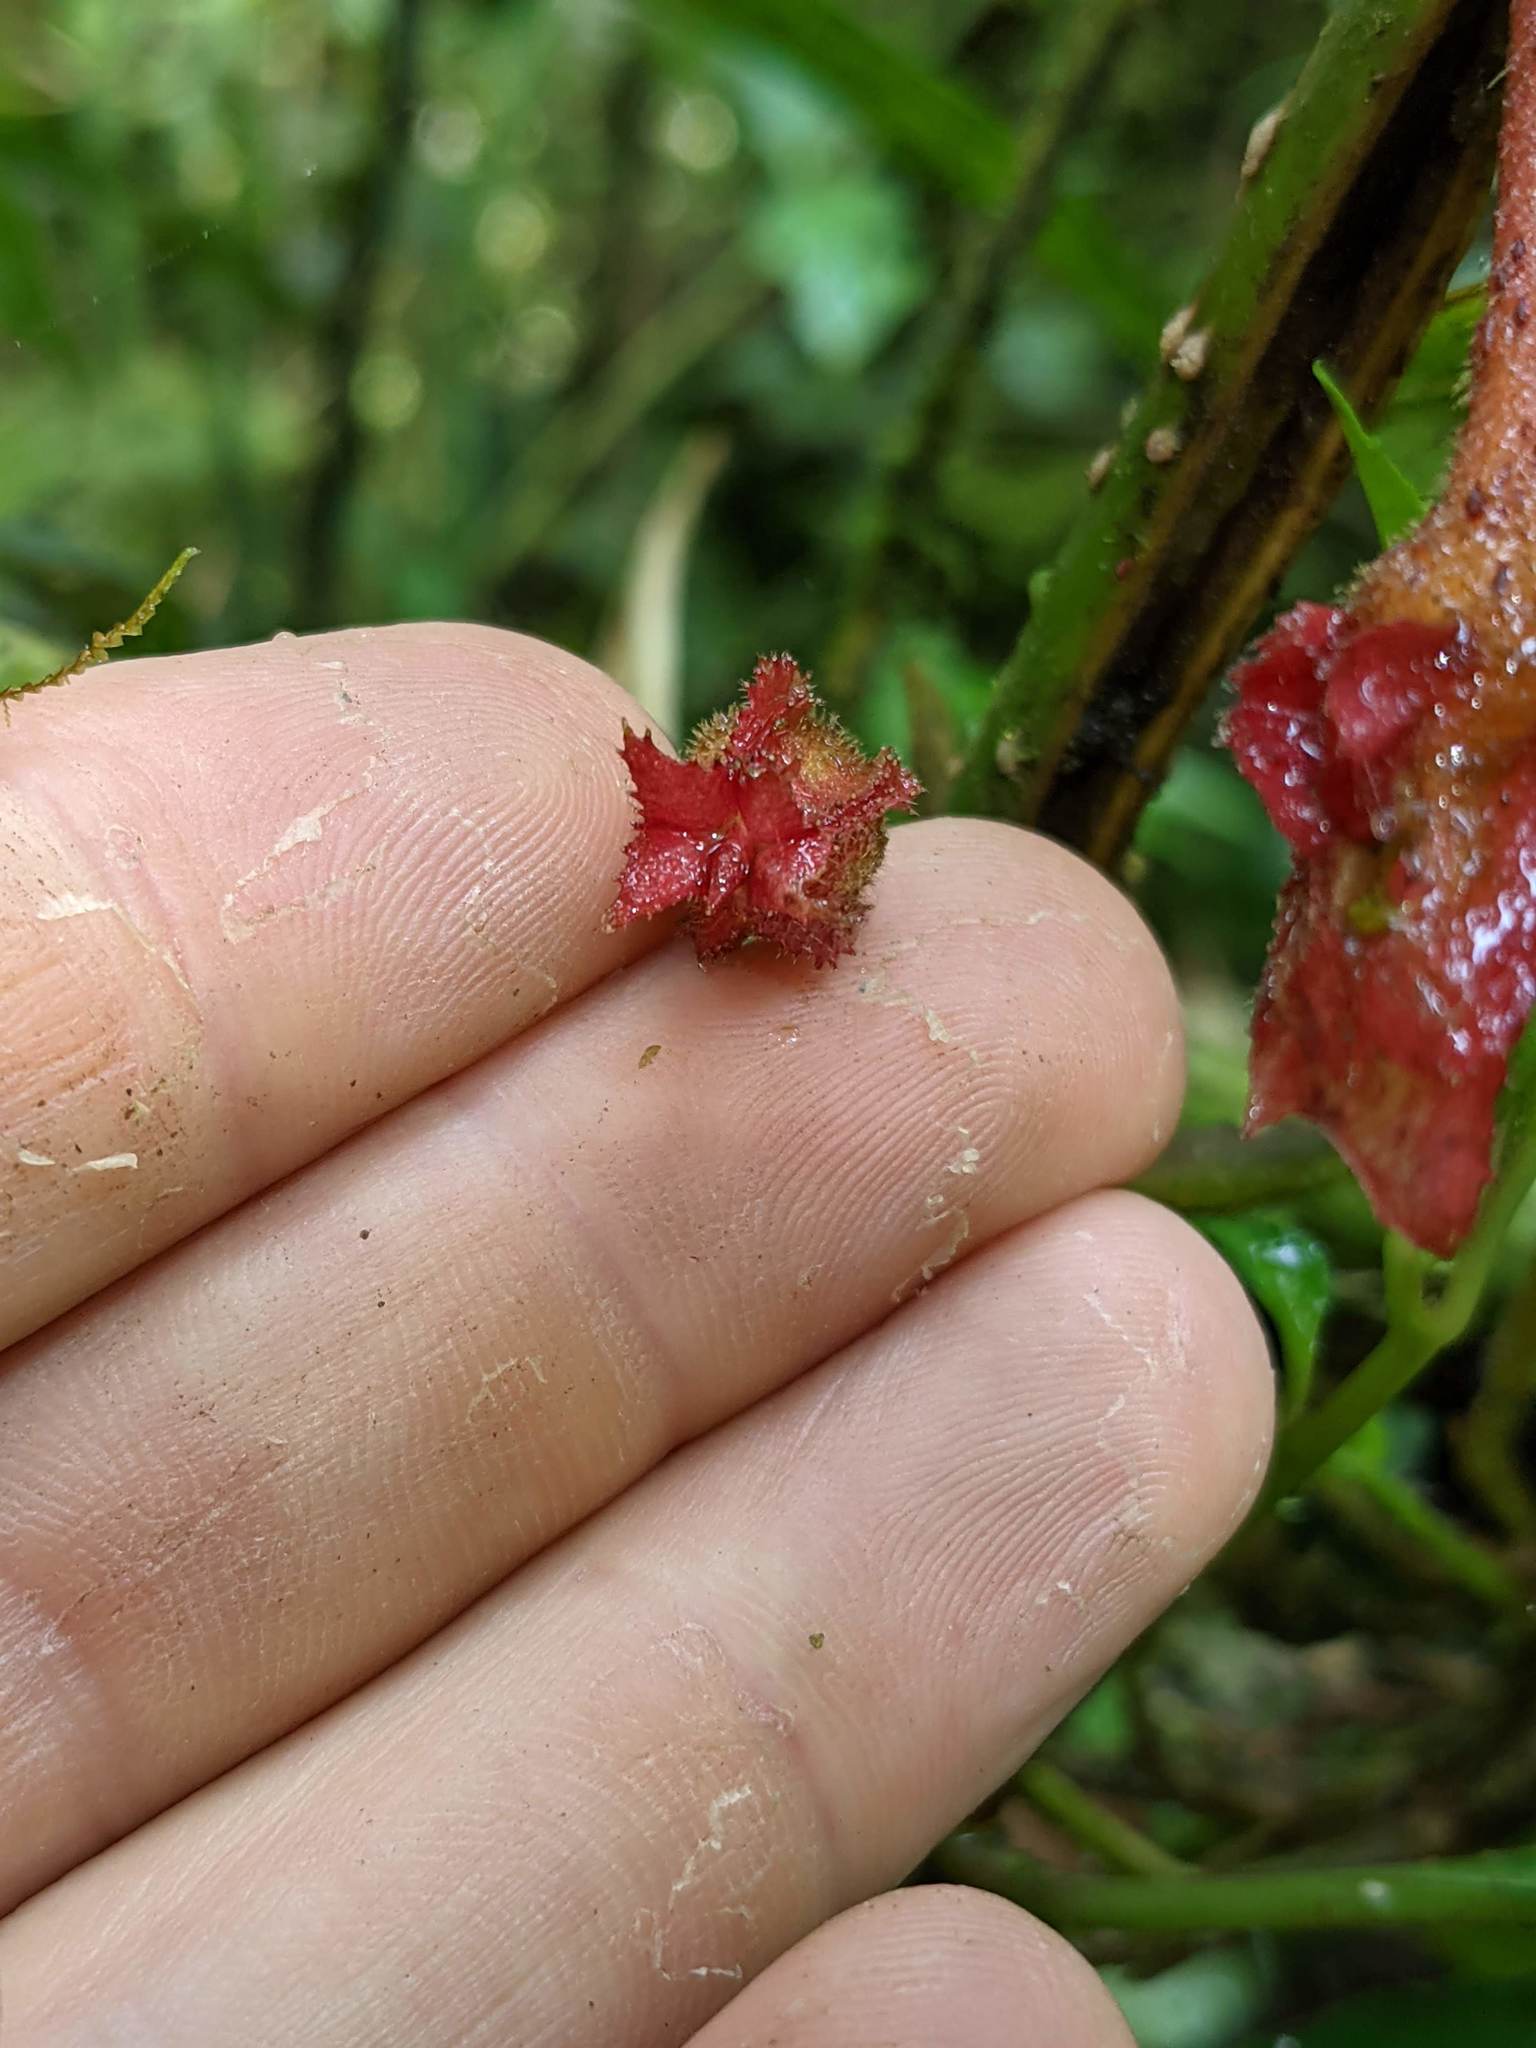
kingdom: Plantae
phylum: Tracheophyta
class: Magnoliopsida
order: Lamiales
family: Gesneriaceae
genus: Glossoloma
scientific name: Glossoloma tetragonum
